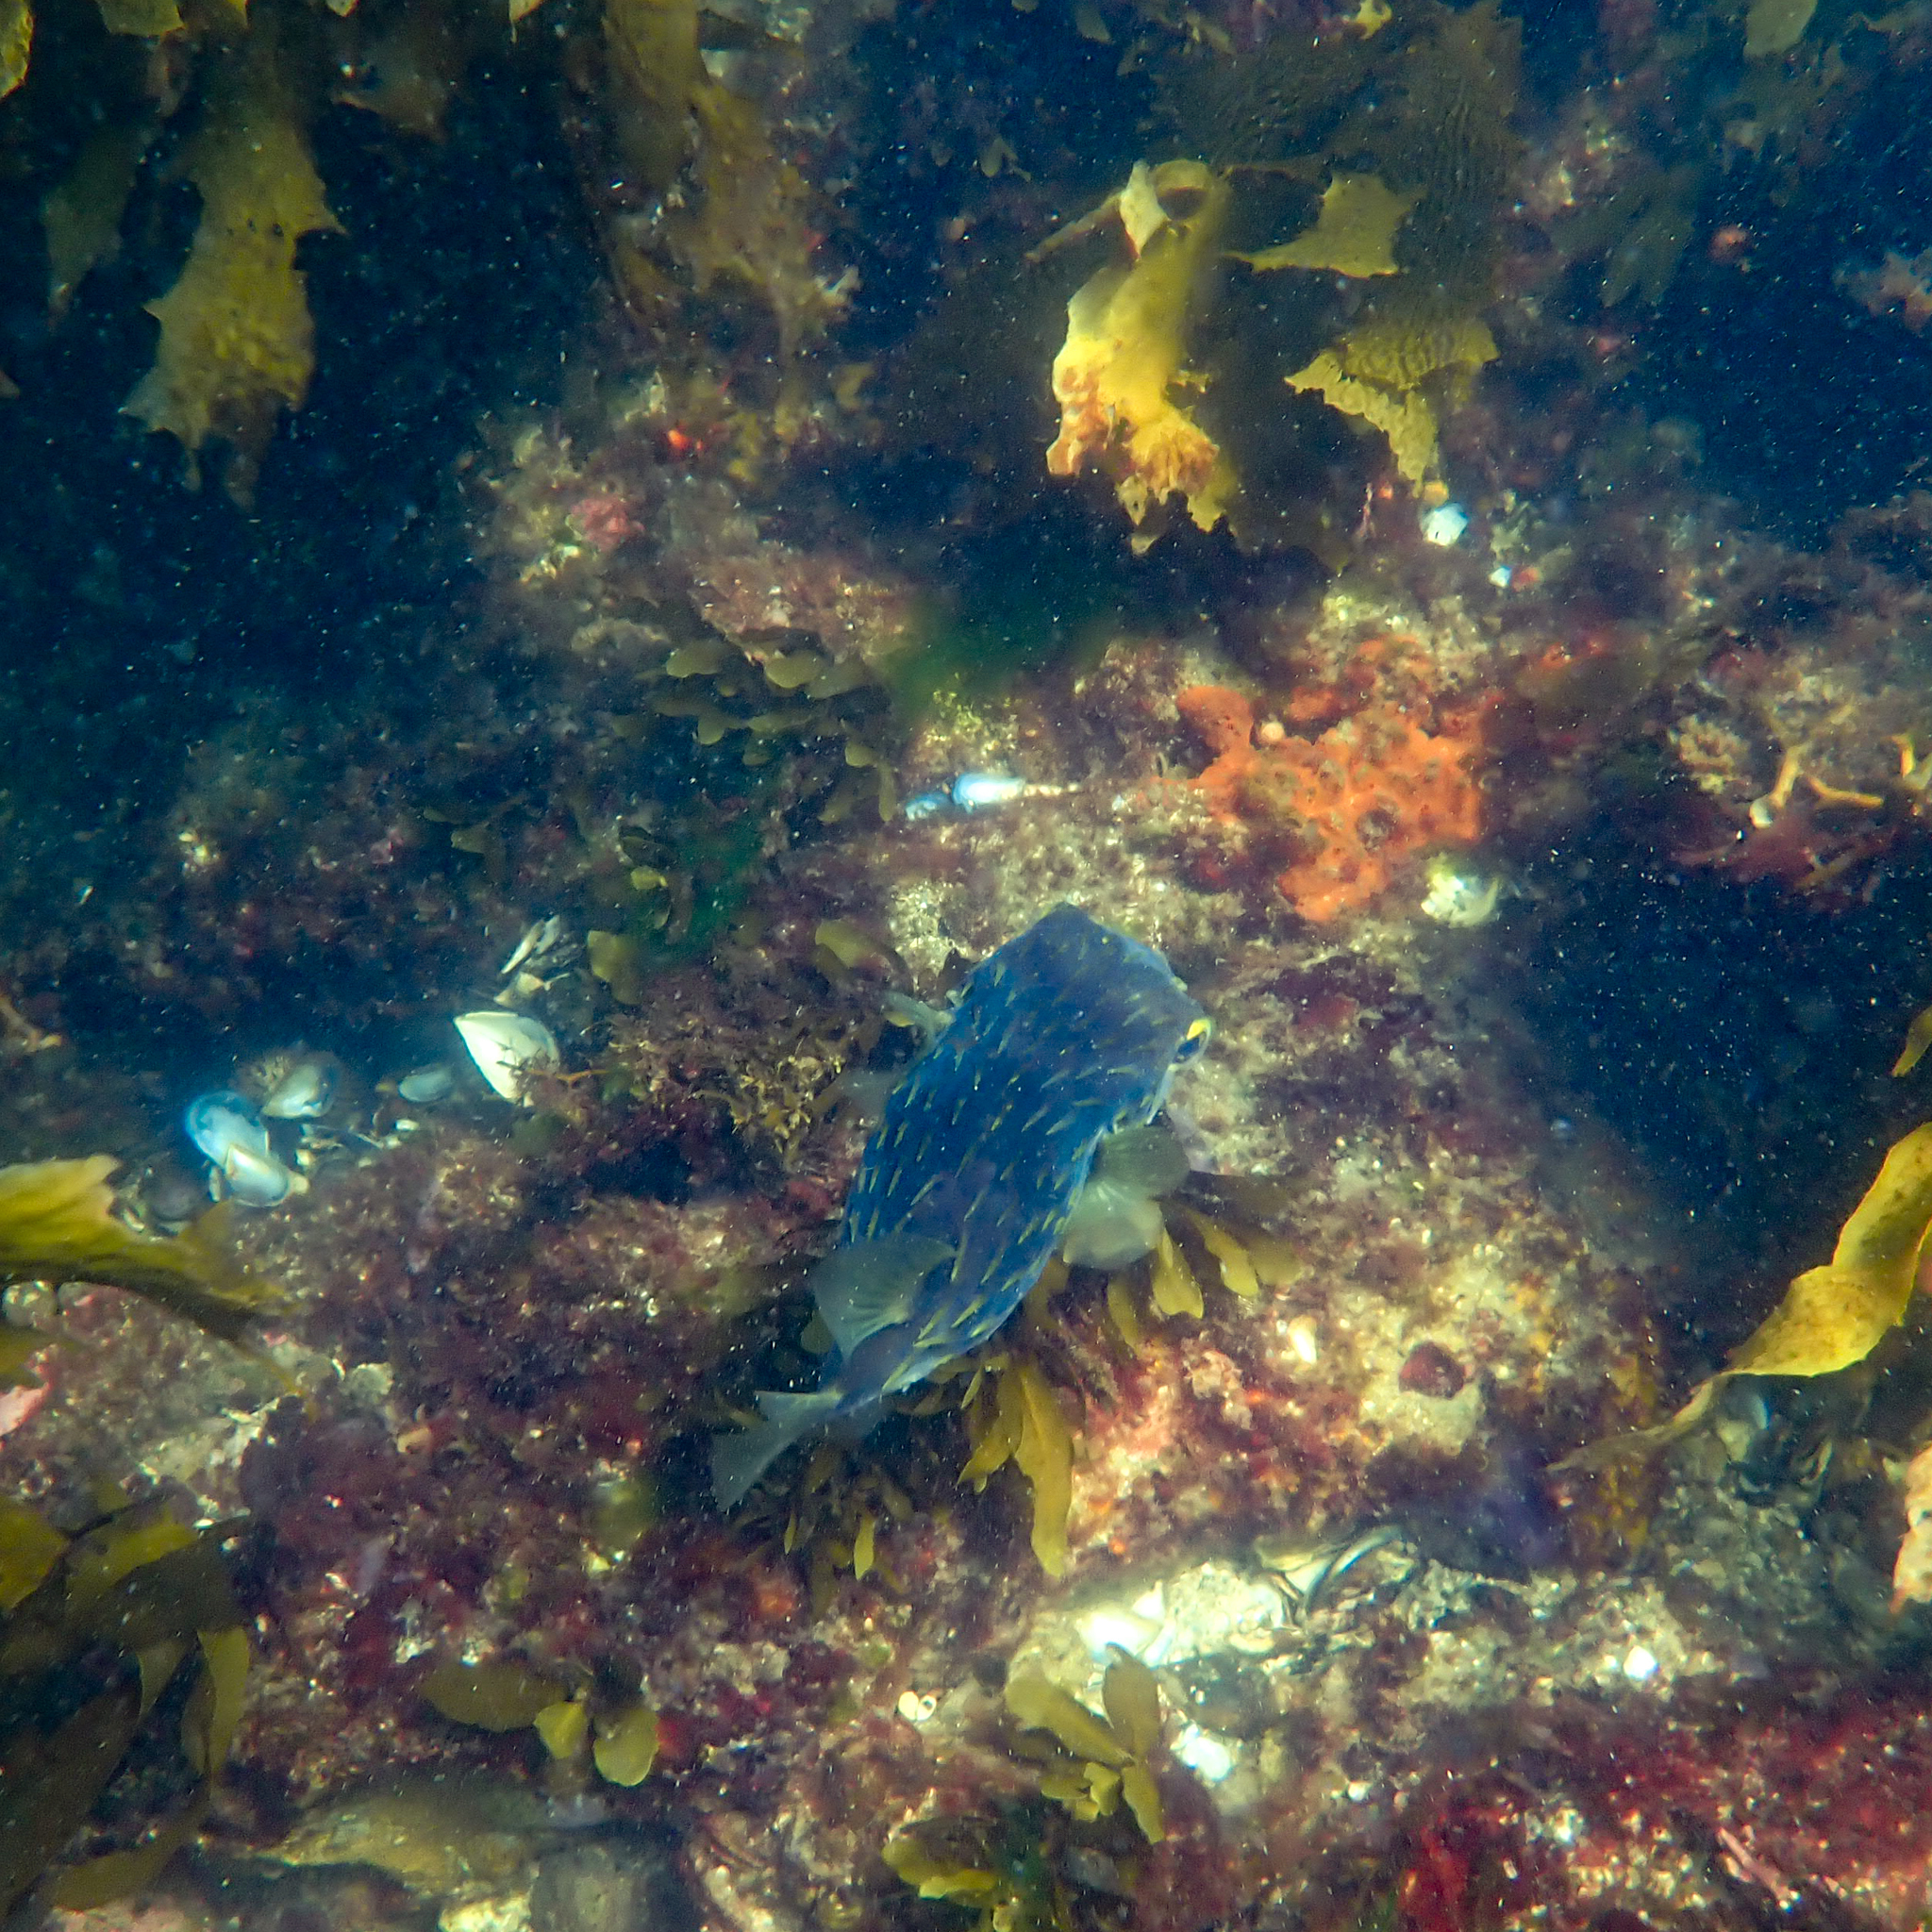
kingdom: Animalia
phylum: Chordata
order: Tetraodontiformes
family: Diodontidae
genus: Diodon
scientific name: Diodon nicthemerus
